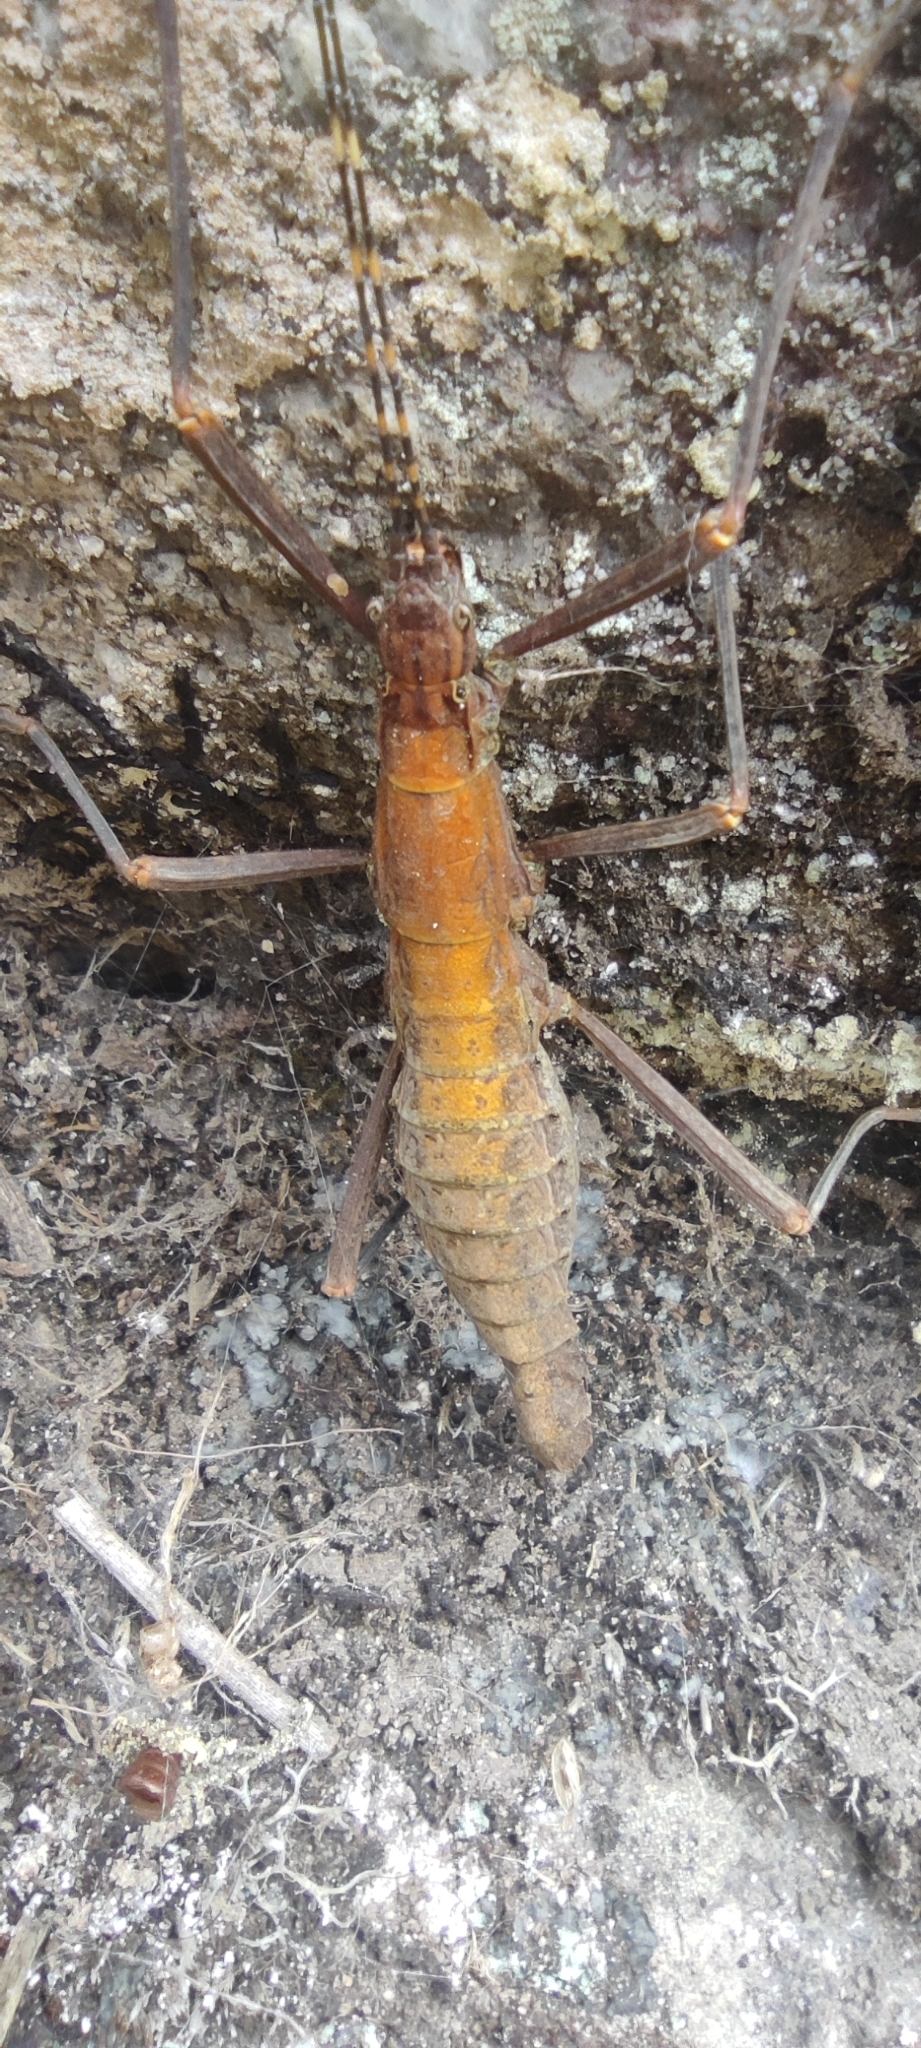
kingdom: Animalia
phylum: Arthropoda
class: Insecta
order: Phasmida
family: Pseudophasmatidae
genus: Peruphasma
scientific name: Peruphasma transversatum
